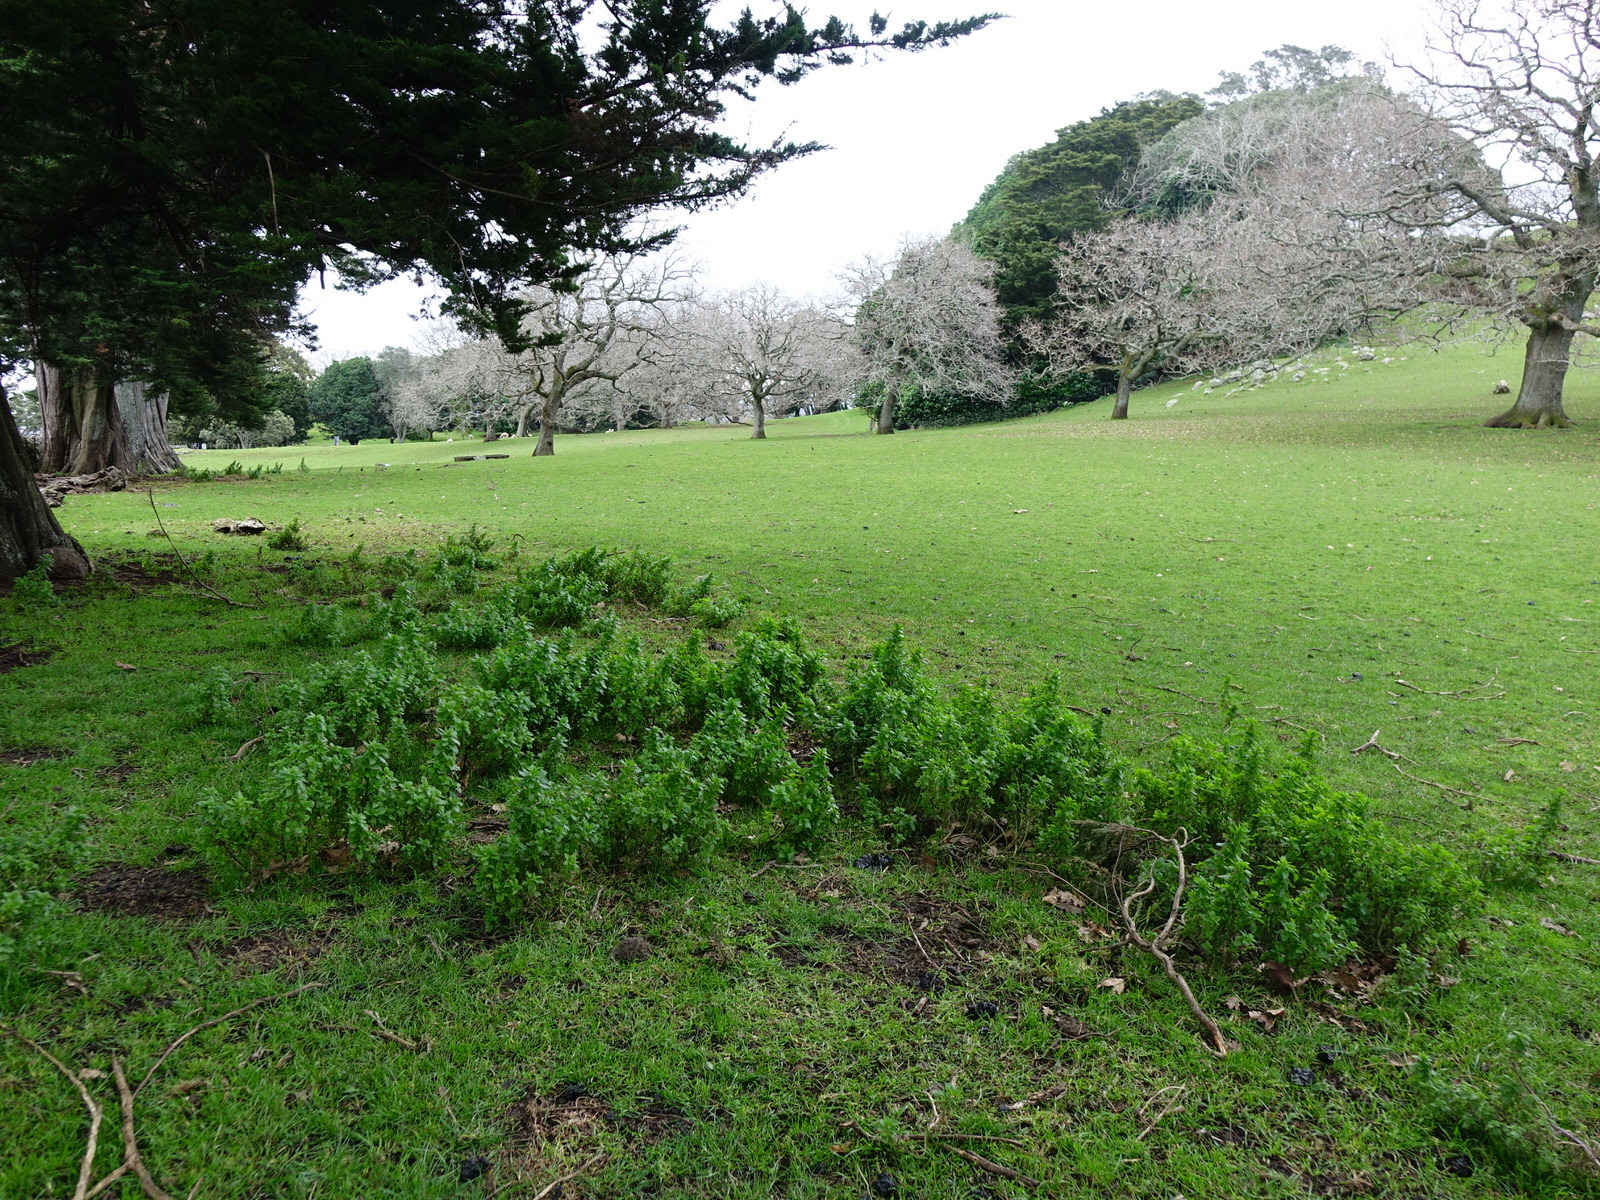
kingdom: Plantae
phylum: Tracheophyta
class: Magnoliopsida
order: Rosales
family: Urticaceae
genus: Urtica
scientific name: Urtica urens
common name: Dwarf nettle
